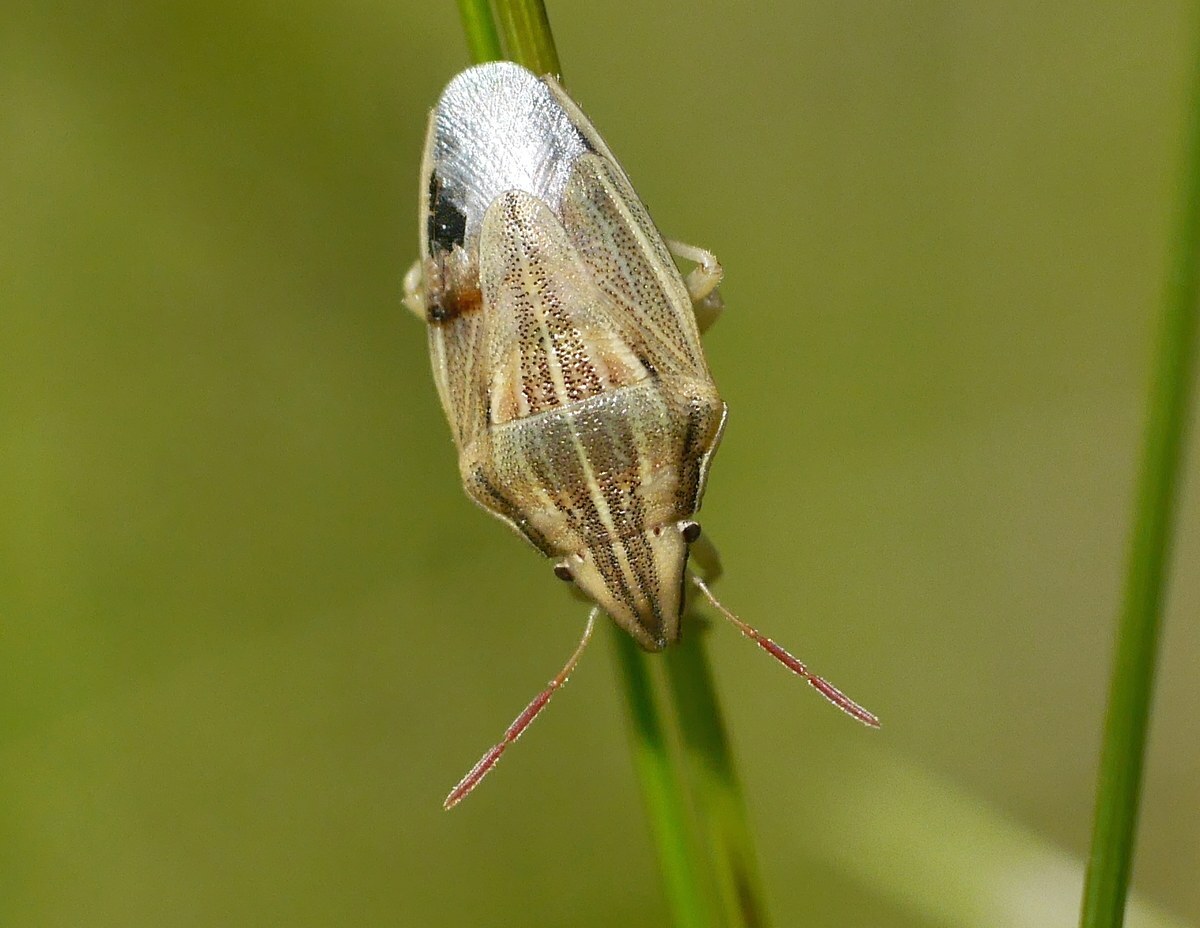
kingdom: Animalia
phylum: Arthropoda
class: Insecta
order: Hemiptera
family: Pentatomidae
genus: Aelia
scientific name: Aelia acuminata
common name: Bishop's mitre
